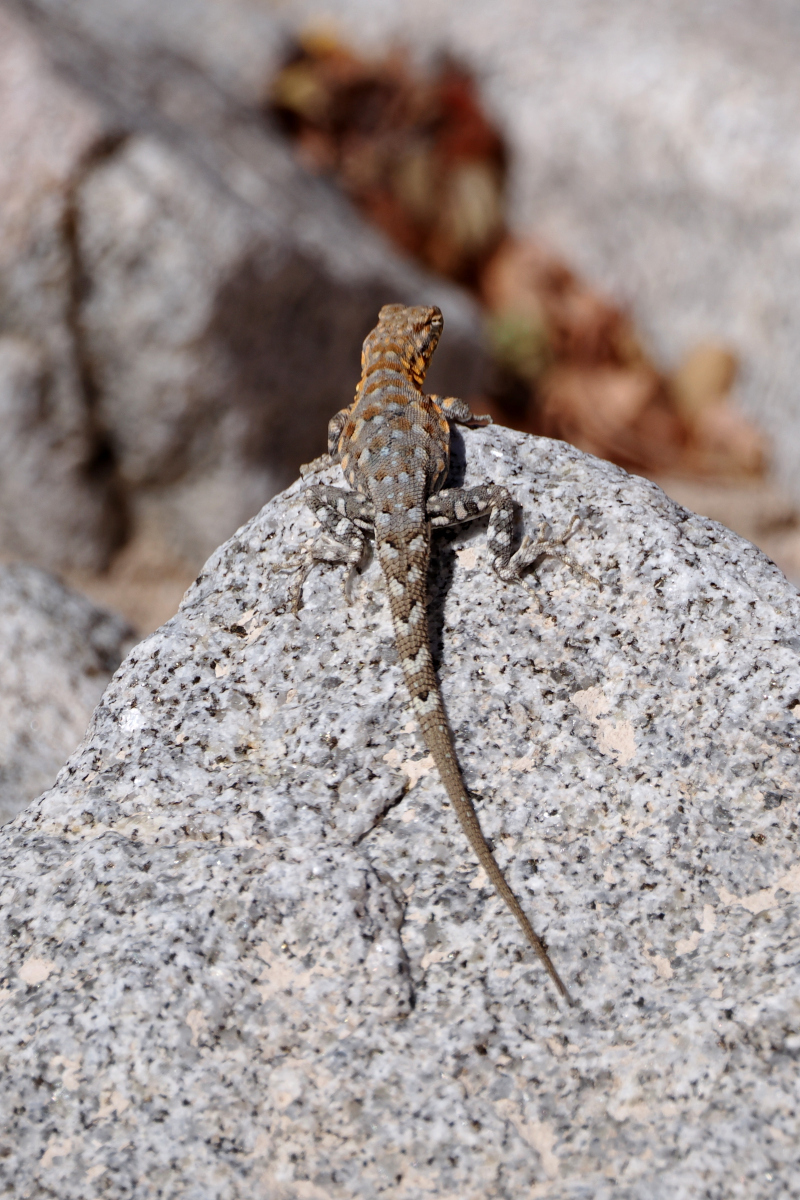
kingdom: Animalia
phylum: Chordata
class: Squamata
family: Phrynosomatidae
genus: Uta
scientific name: Uta stansburiana
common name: Side-blotched lizard
